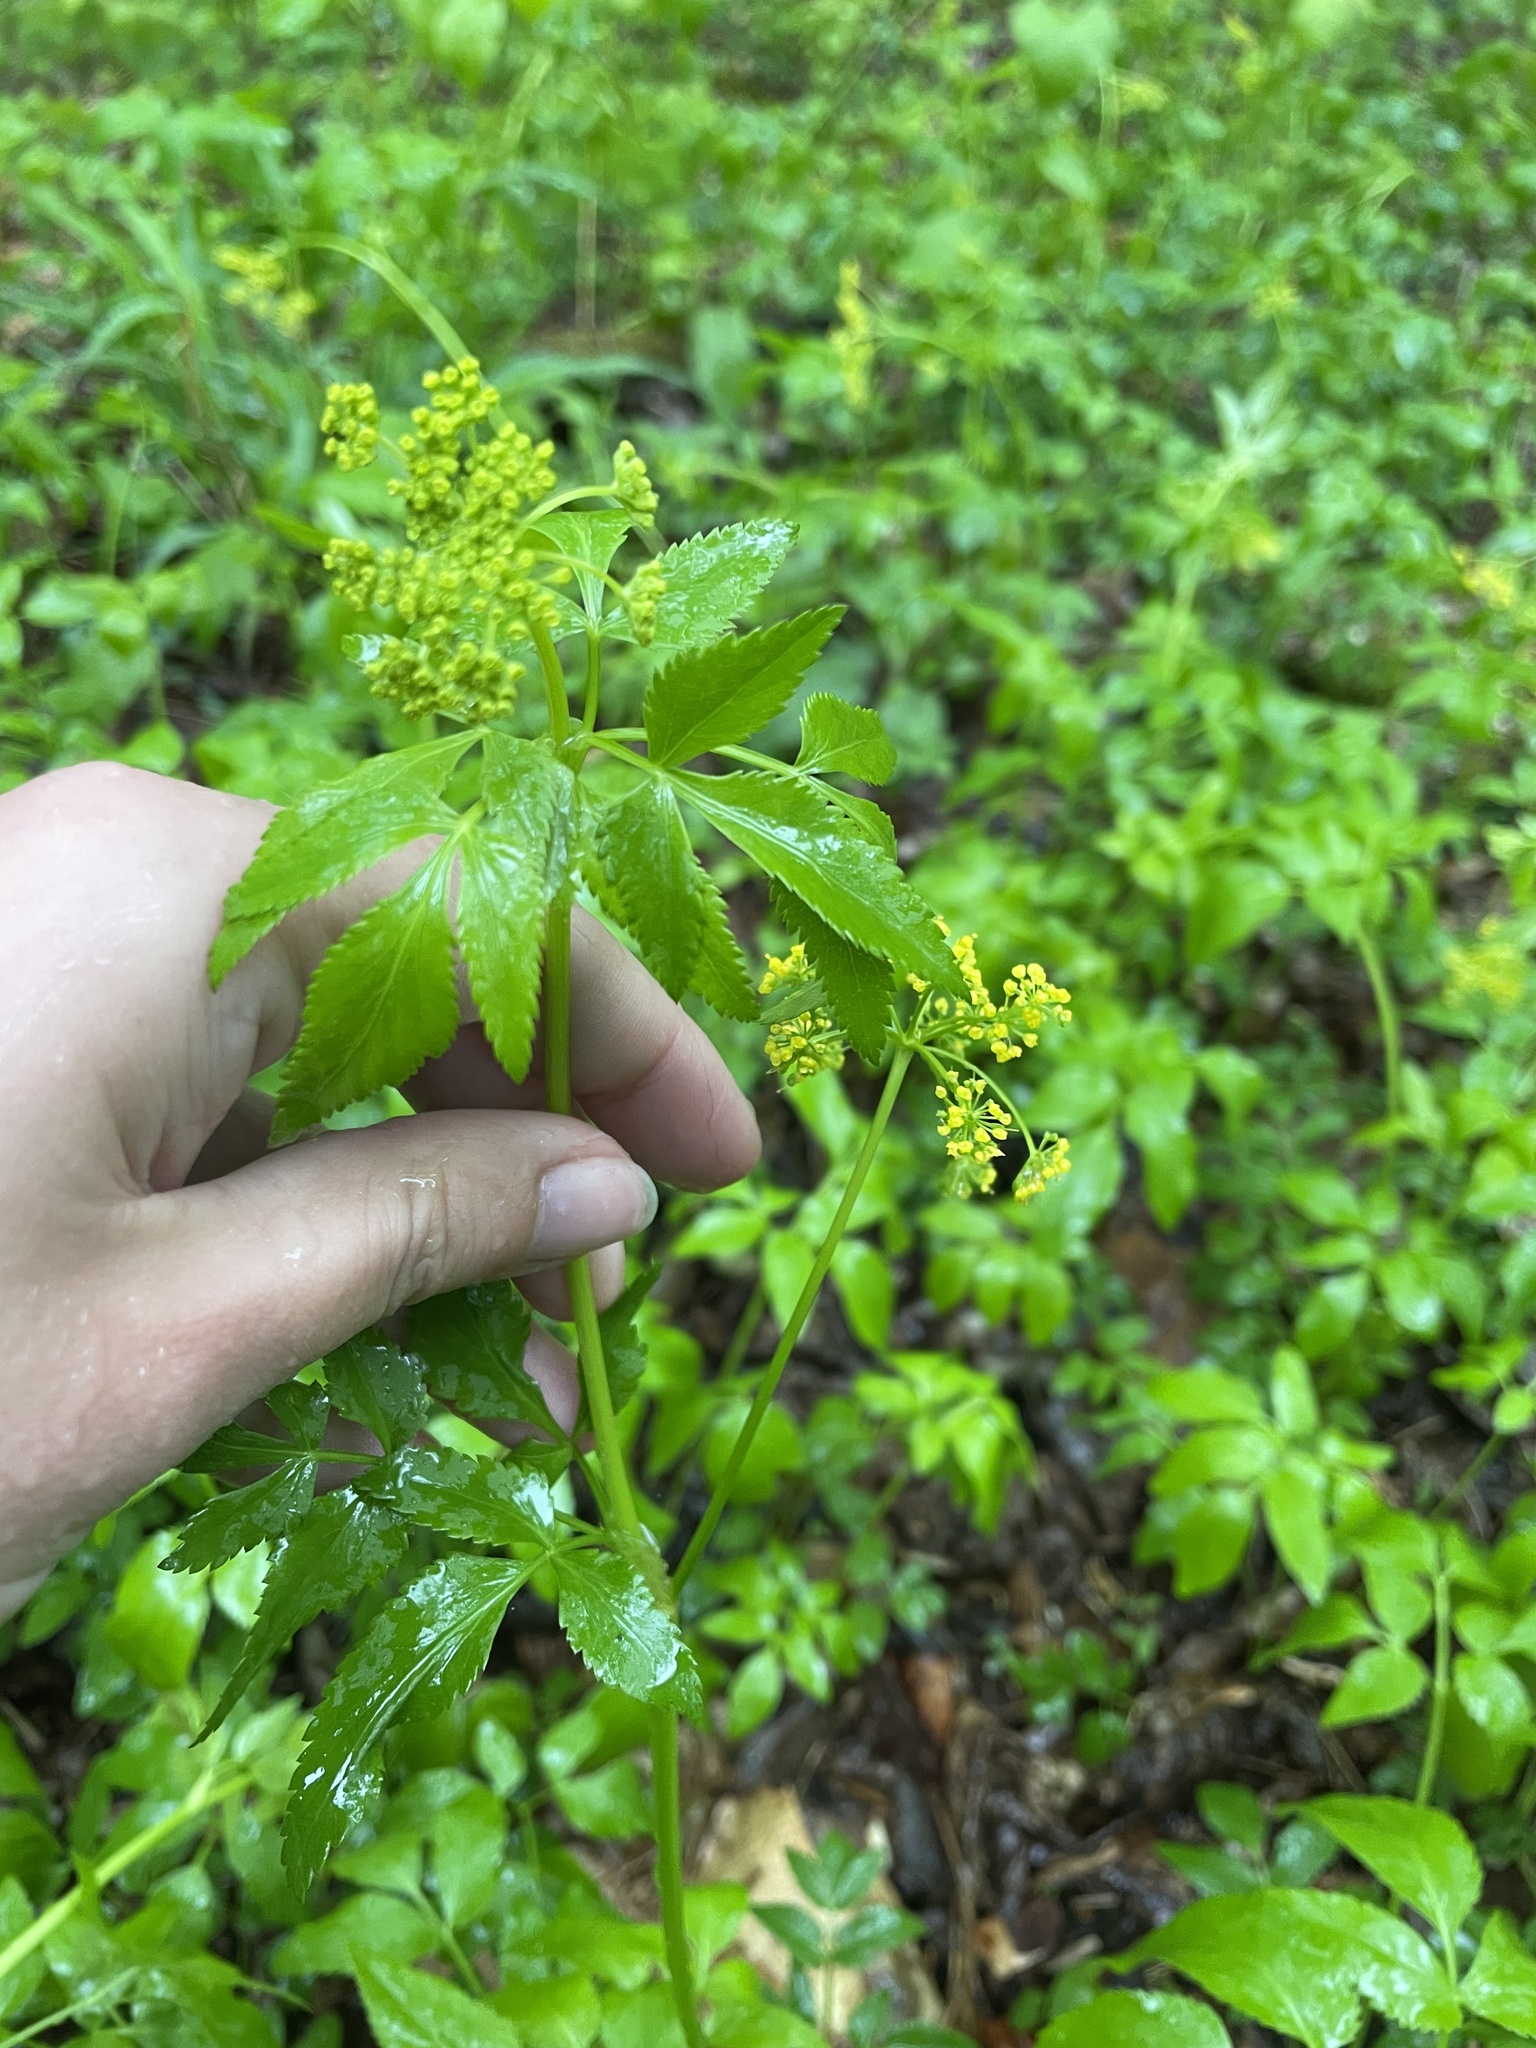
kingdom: Plantae
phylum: Tracheophyta
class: Magnoliopsida
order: Apiales
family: Apiaceae
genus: Zizia
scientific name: Zizia aurea
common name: Golden alexanders
